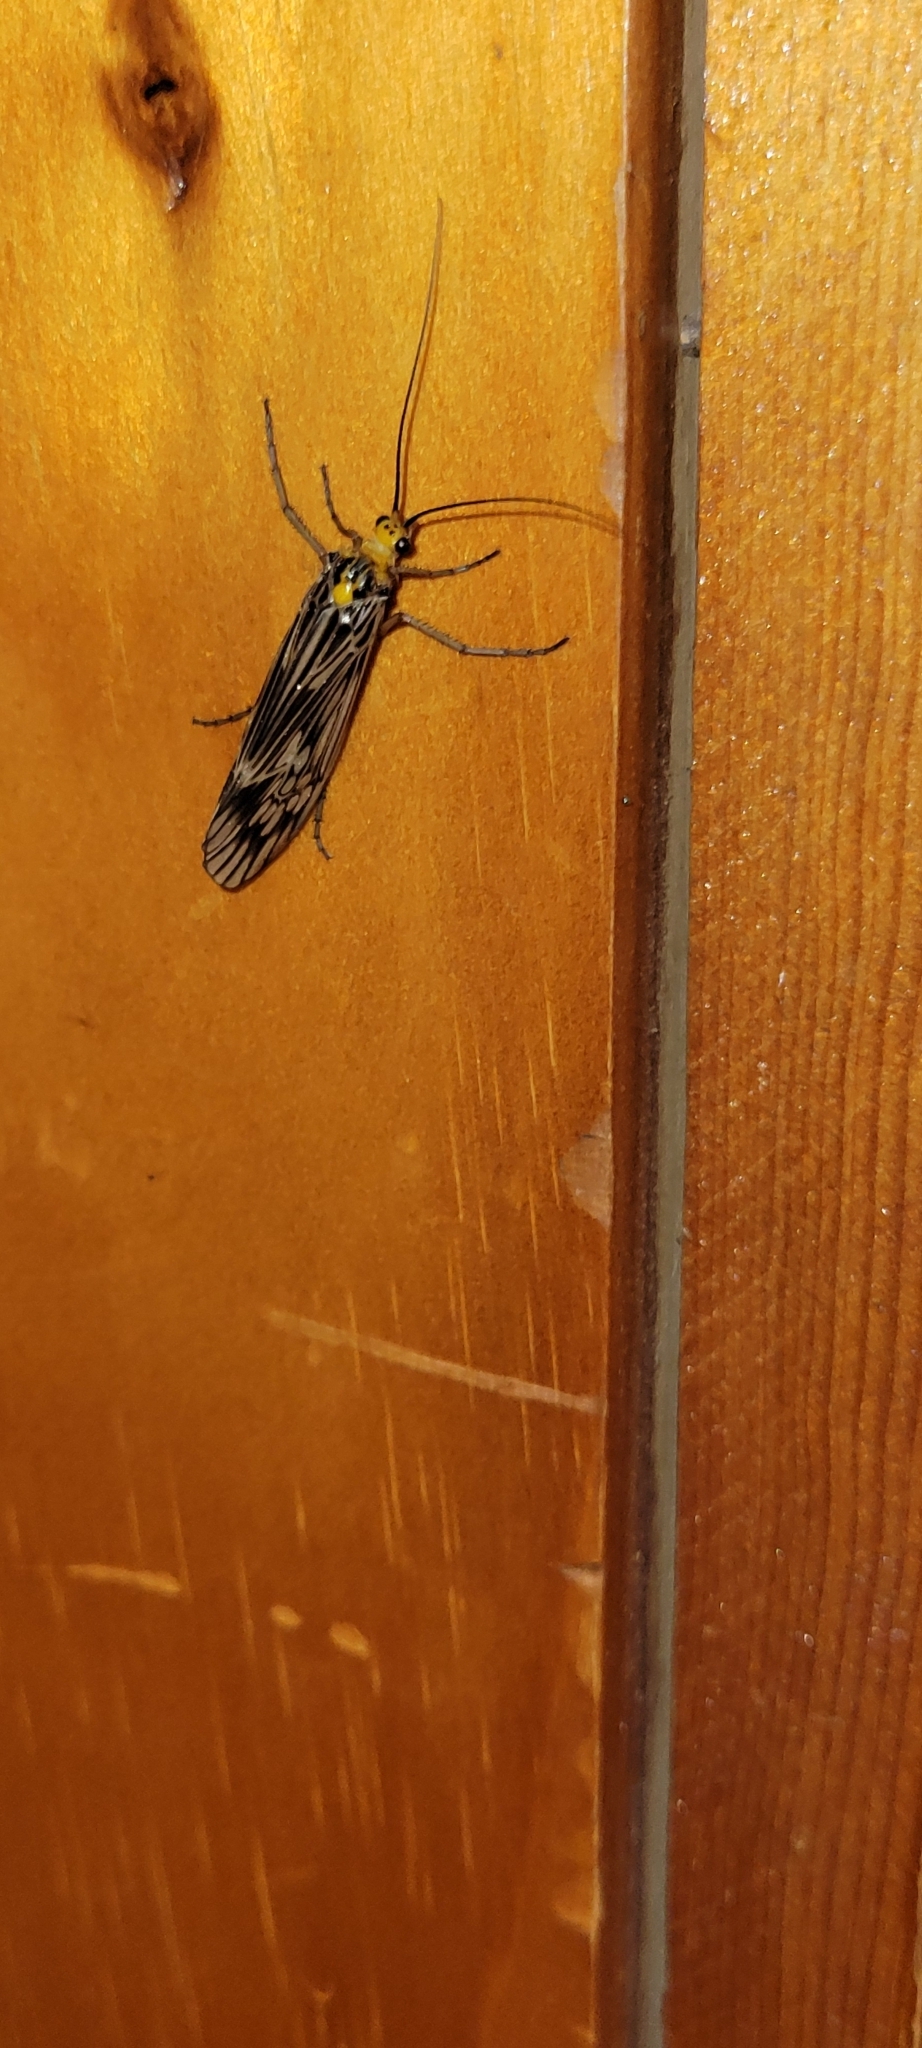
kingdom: Animalia
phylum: Arthropoda
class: Insecta
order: Trichoptera
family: Limnephilidae
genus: Hydatophylax
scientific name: Hydatophylax argus
